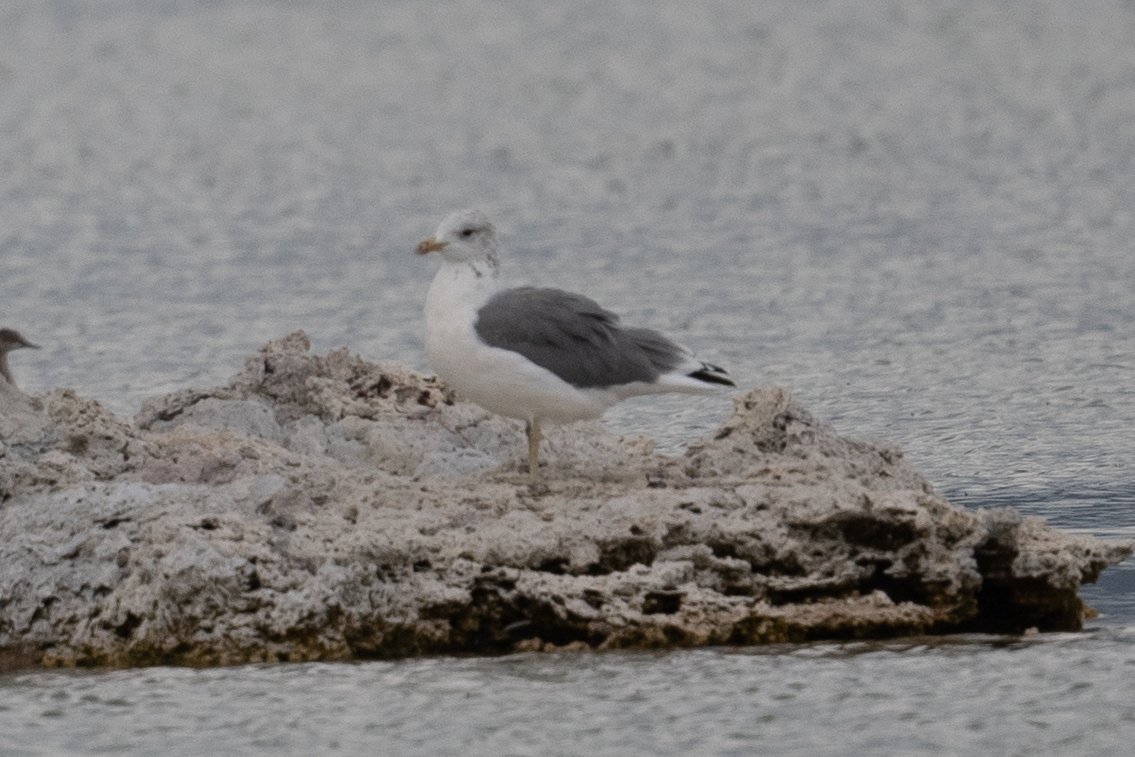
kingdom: Animalia
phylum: Chordata
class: Aves
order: Charadriiformes
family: Laridae
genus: Larus
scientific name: Larus californicus
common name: California gull
